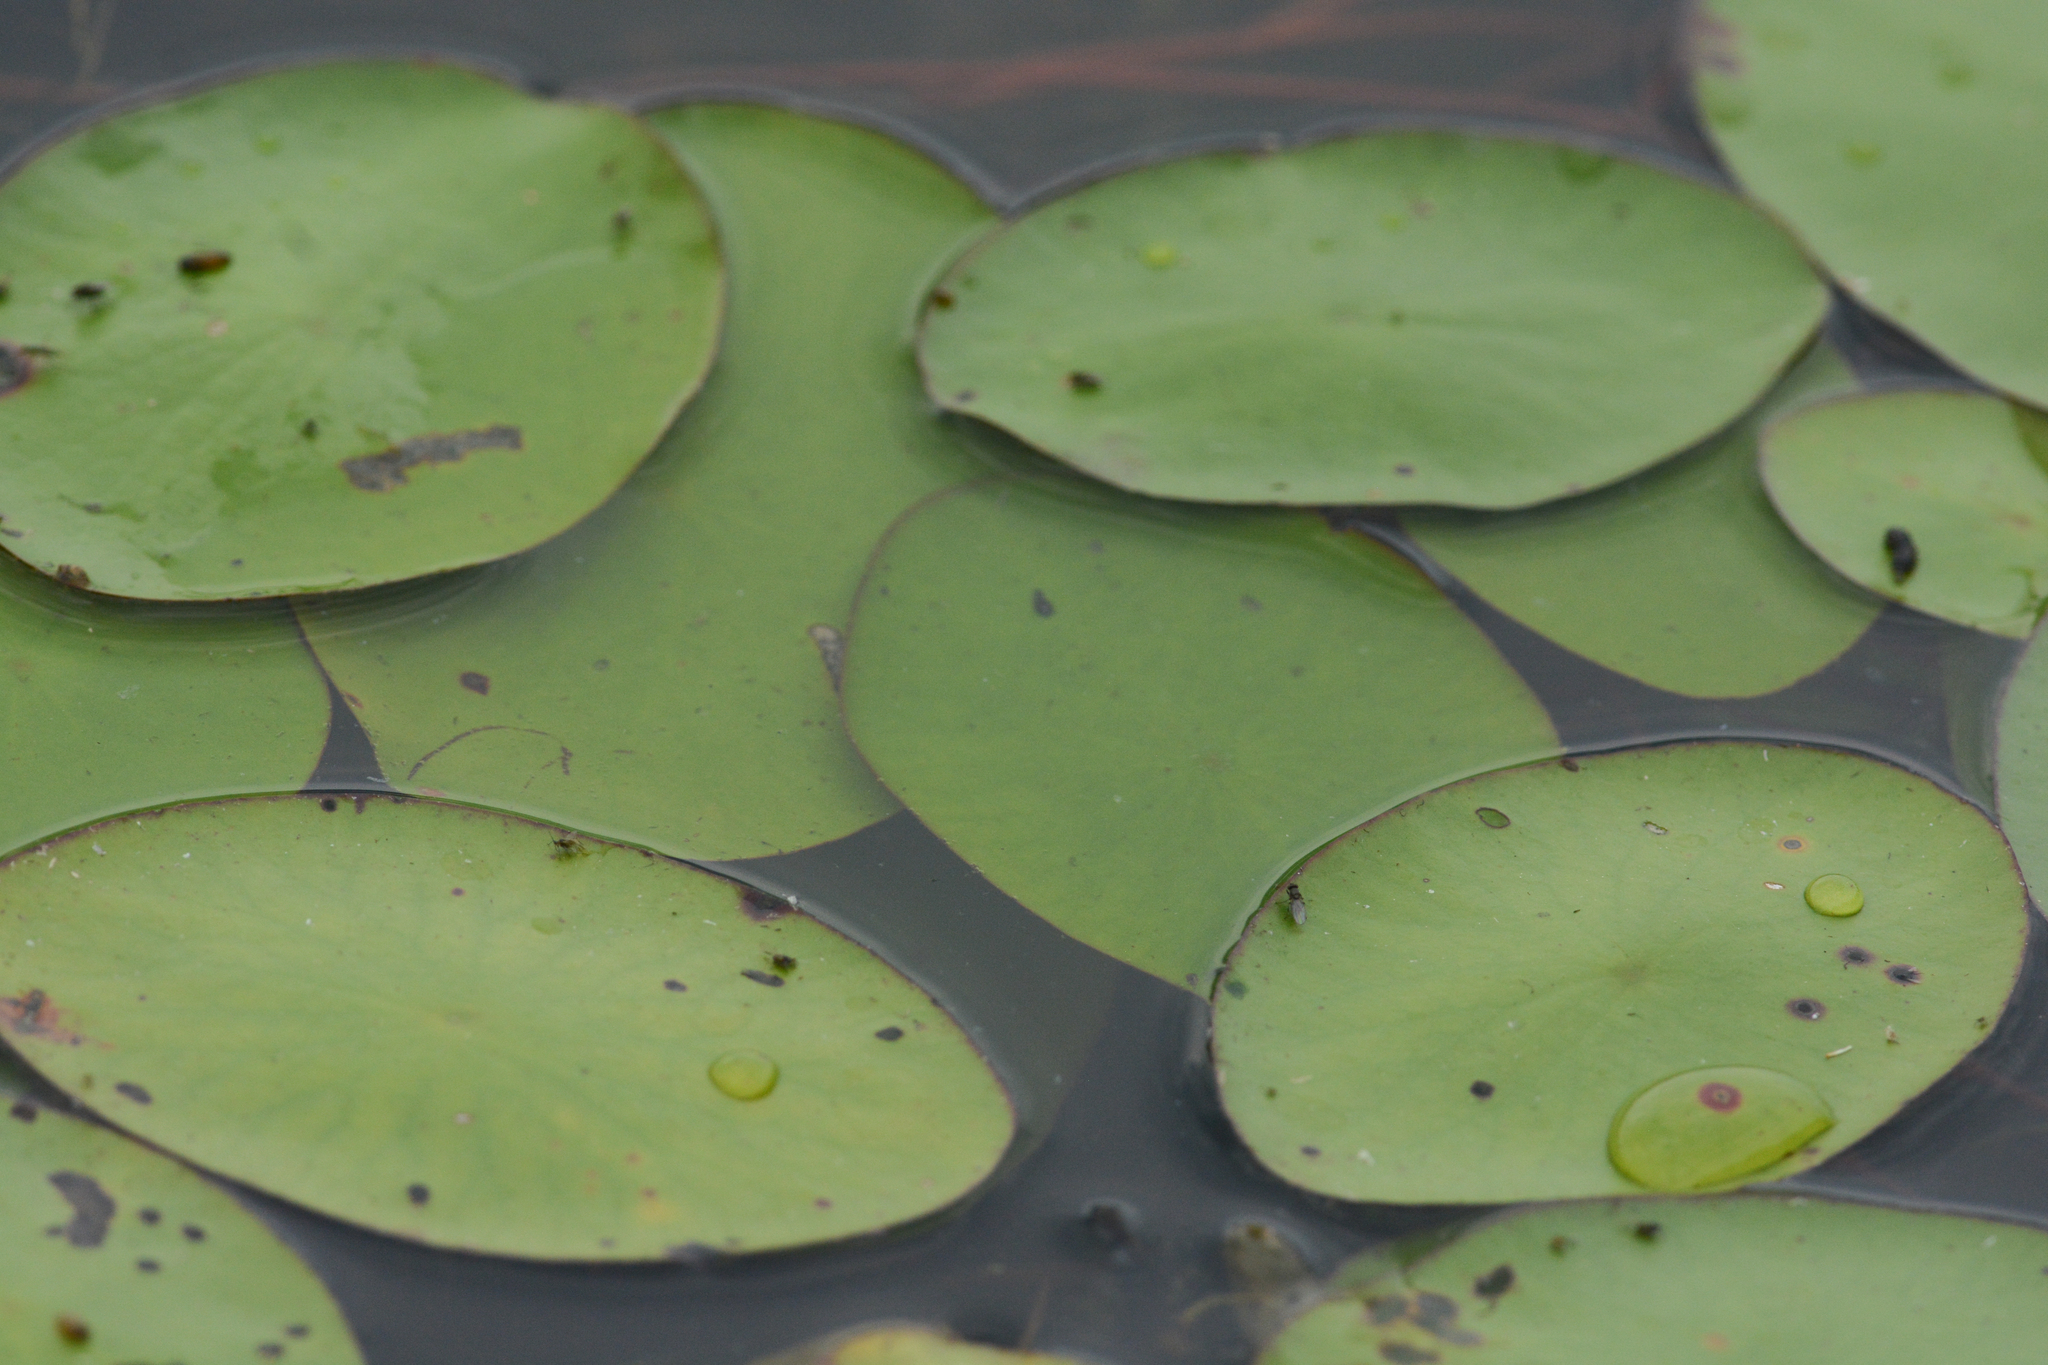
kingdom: Plantae
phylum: Tracheophyta
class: Magnoliopsida
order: Nymphaeales
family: Cabombaceae
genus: Brasenia
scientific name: Brasenia schreberi
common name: Water-shield
